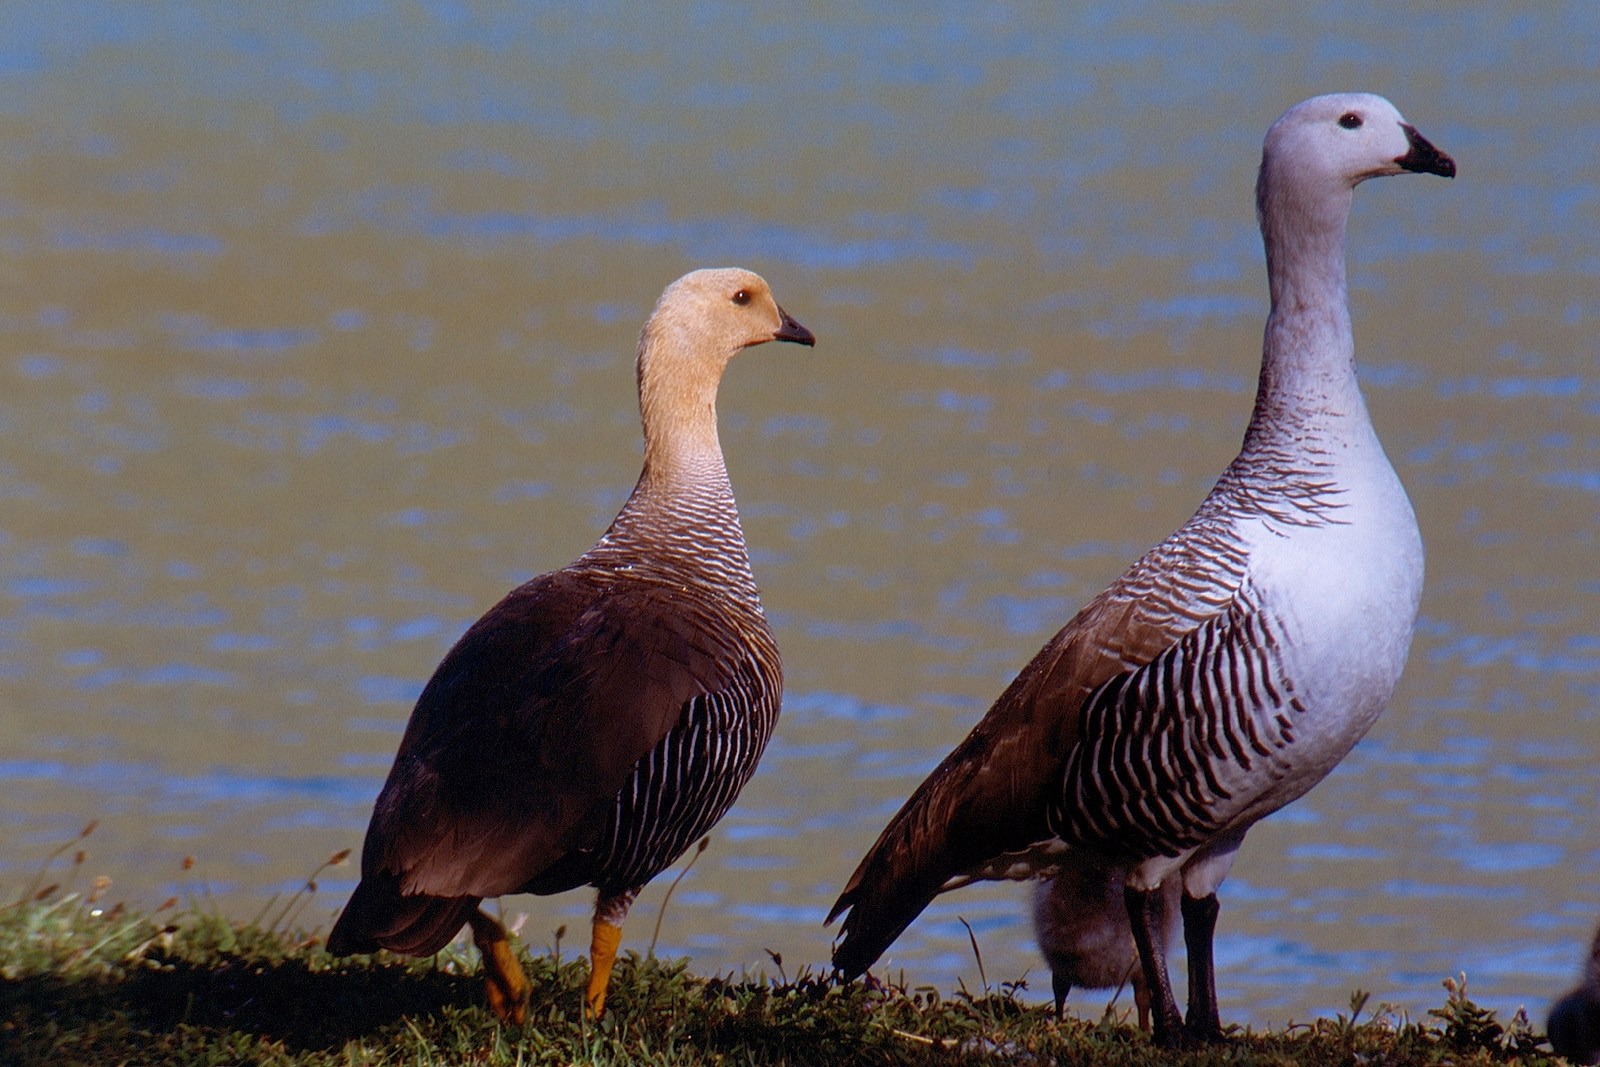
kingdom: Animalia
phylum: Chordata
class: Aves
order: Anseriformes
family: Anatidae
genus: Chloephaga
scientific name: Chloephaga picta
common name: Upland goose
